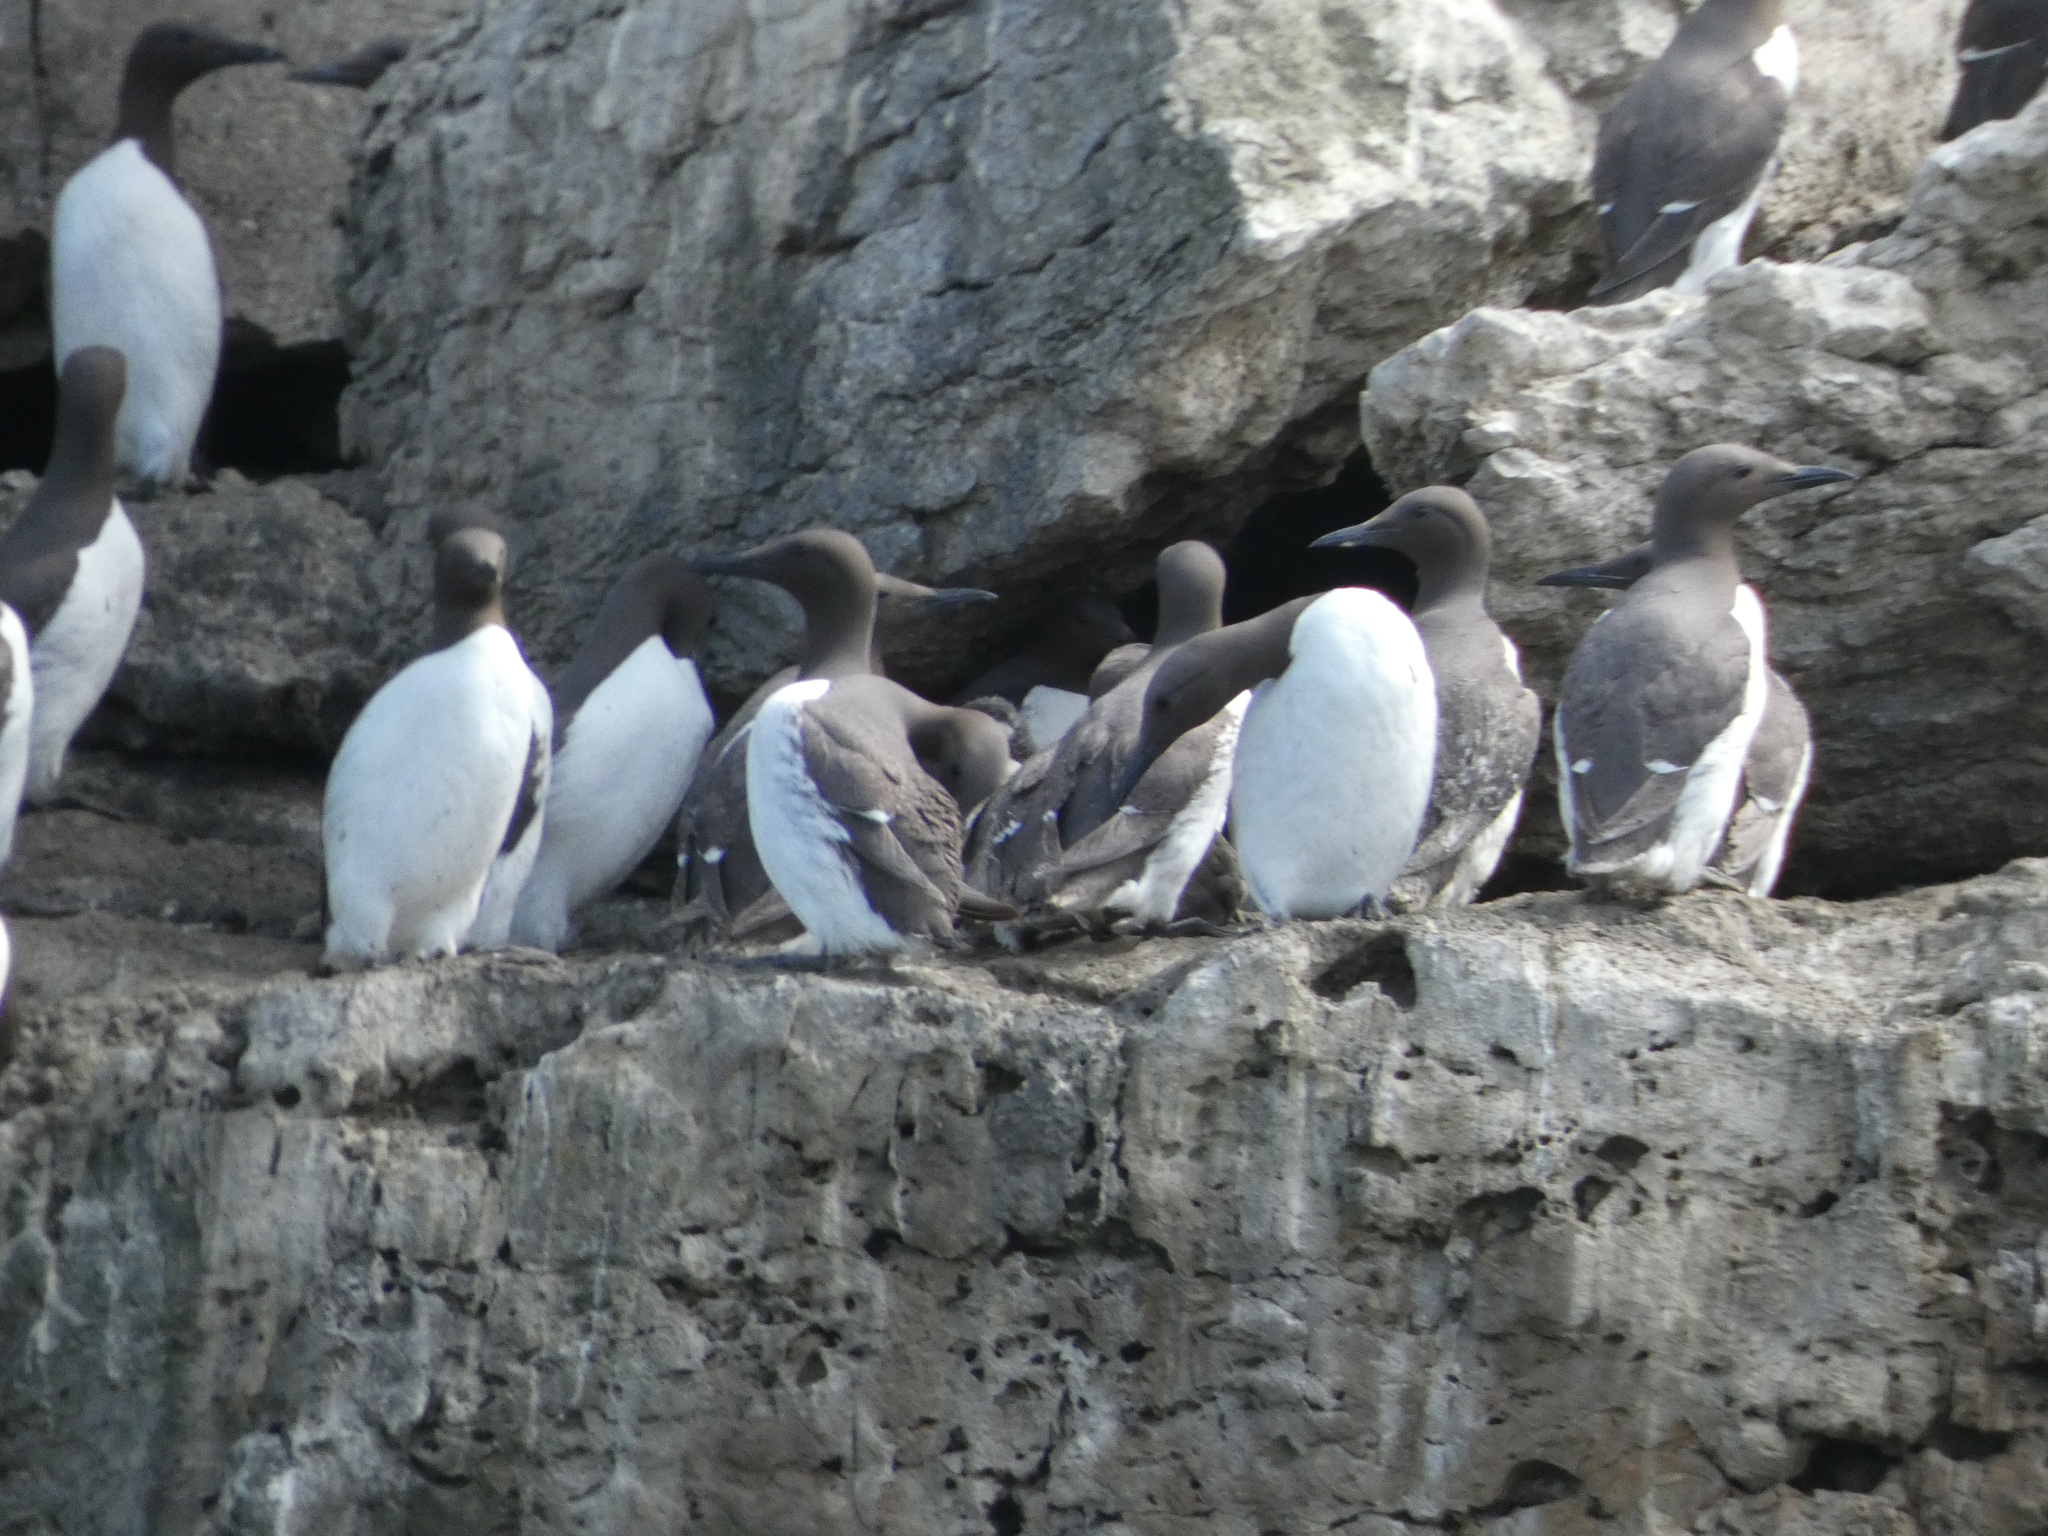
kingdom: Animalia
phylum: Chordata
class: Aves
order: Charadriiformes
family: Alcidae
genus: Uria
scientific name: Uria aalge
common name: Common murre
